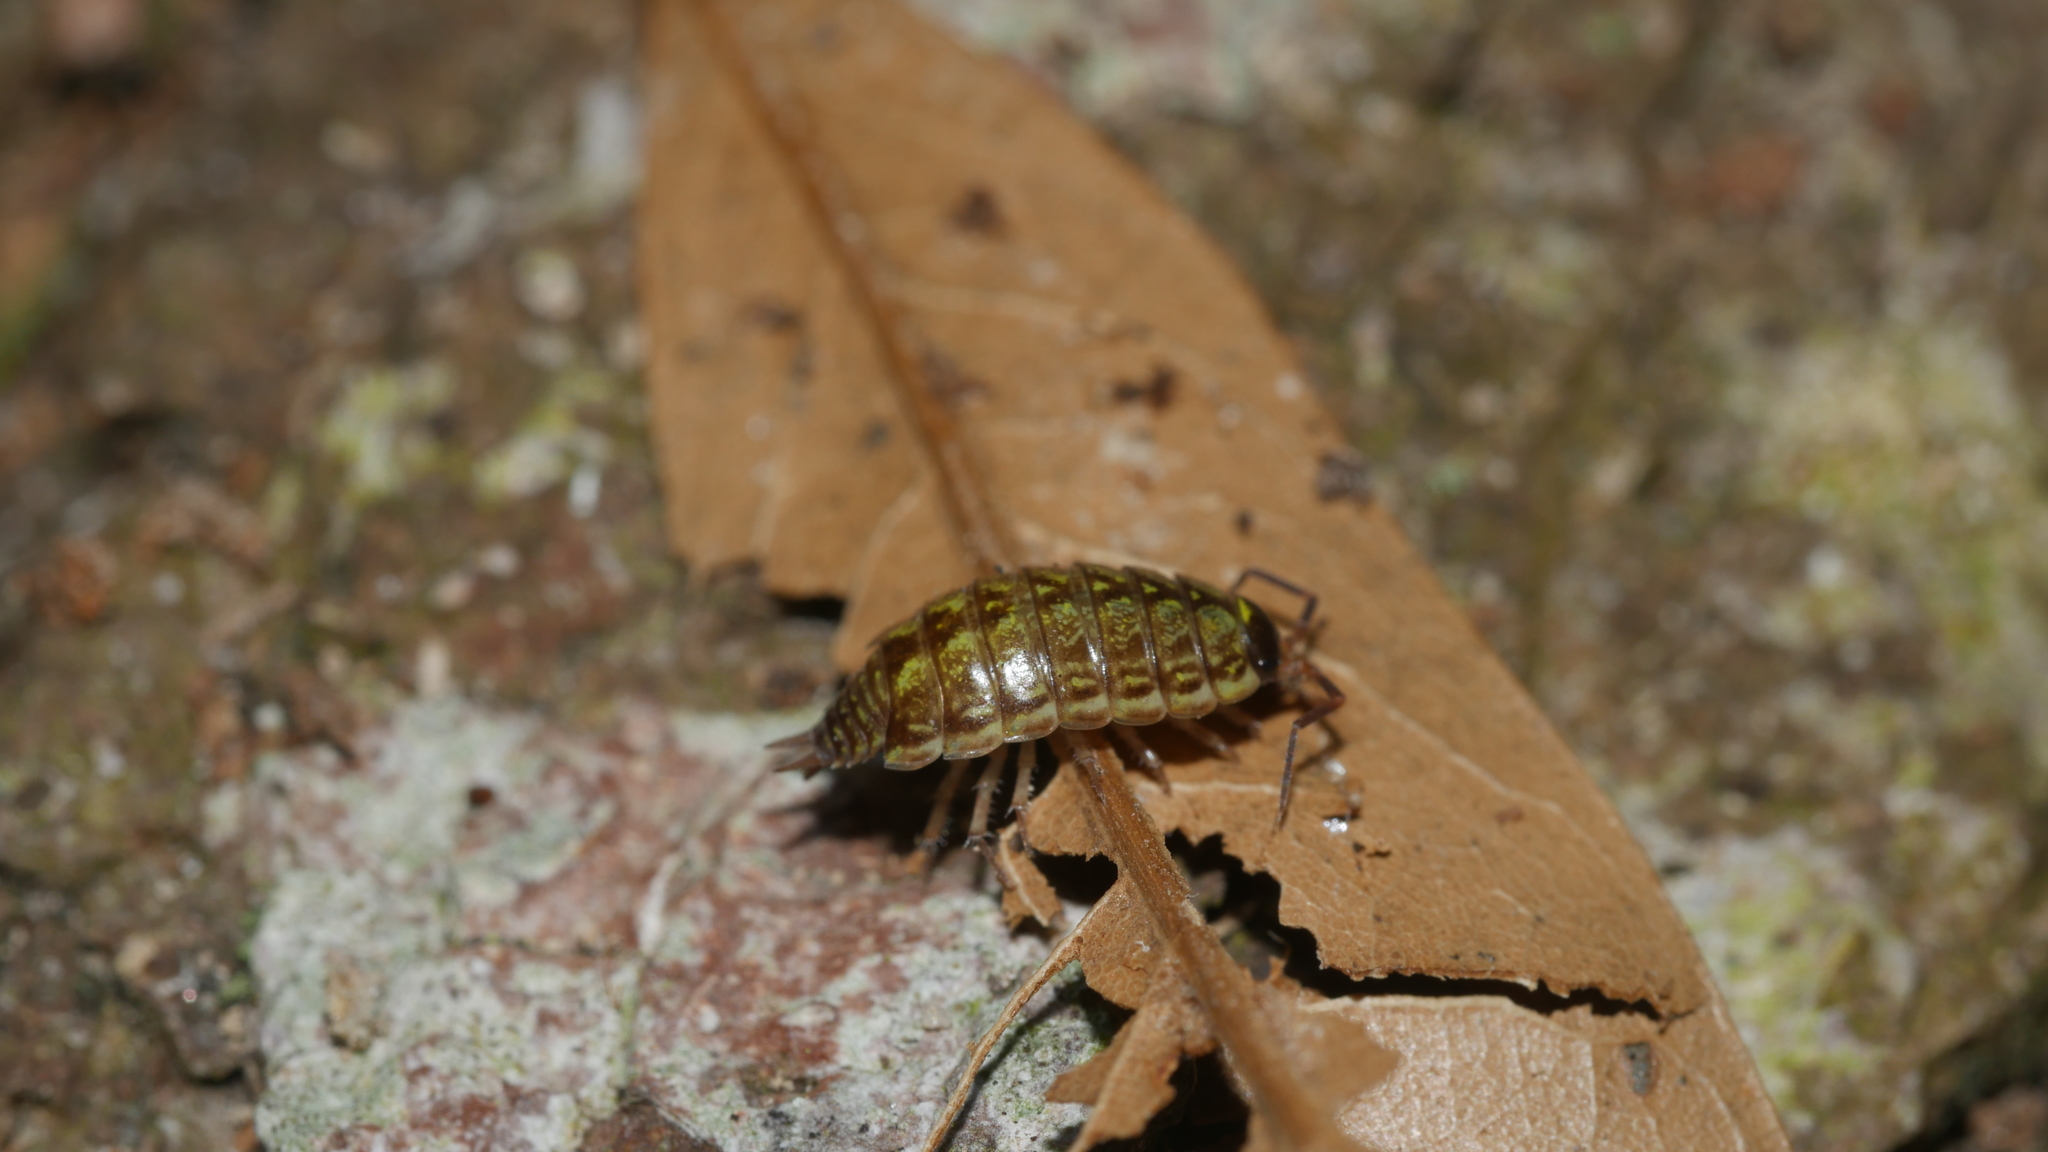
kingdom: Animalia
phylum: Arthropoda
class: Malacostraca
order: Isopoda
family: Philosciidae
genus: Philoscia
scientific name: Philoscia muscorum
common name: Common striped woodlouse
